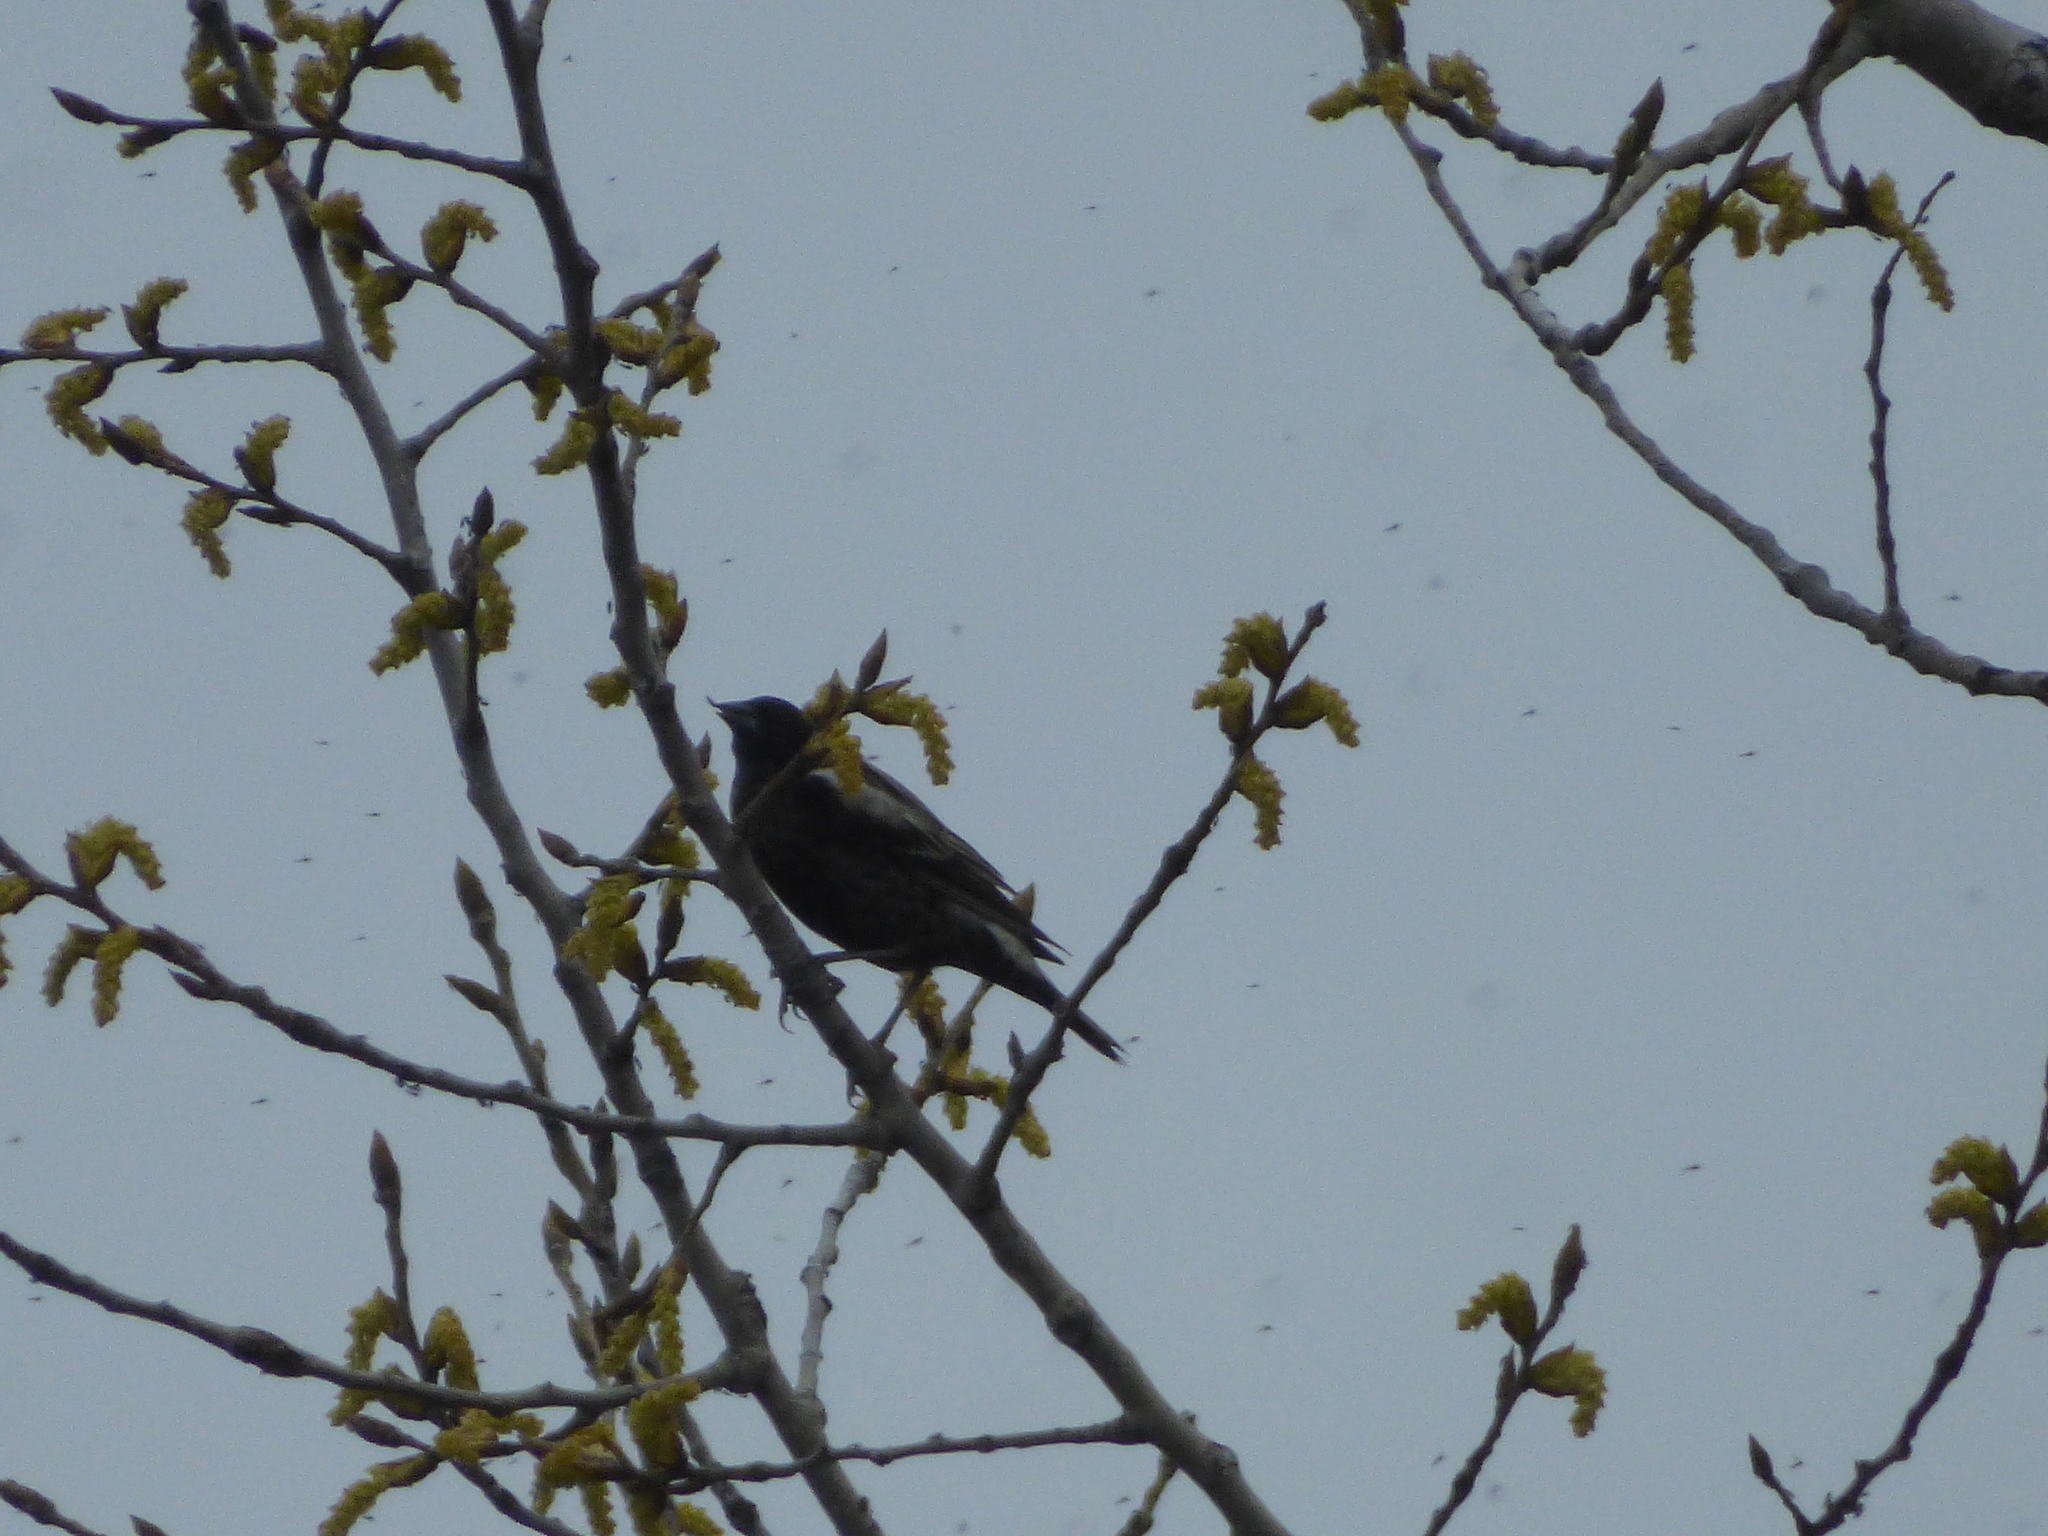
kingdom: Animalia
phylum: Chordata
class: Aves
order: Passeriformes
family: Icteridae
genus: Dolichonyx
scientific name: Dolichonyx oryzivorus
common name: Bobolink
